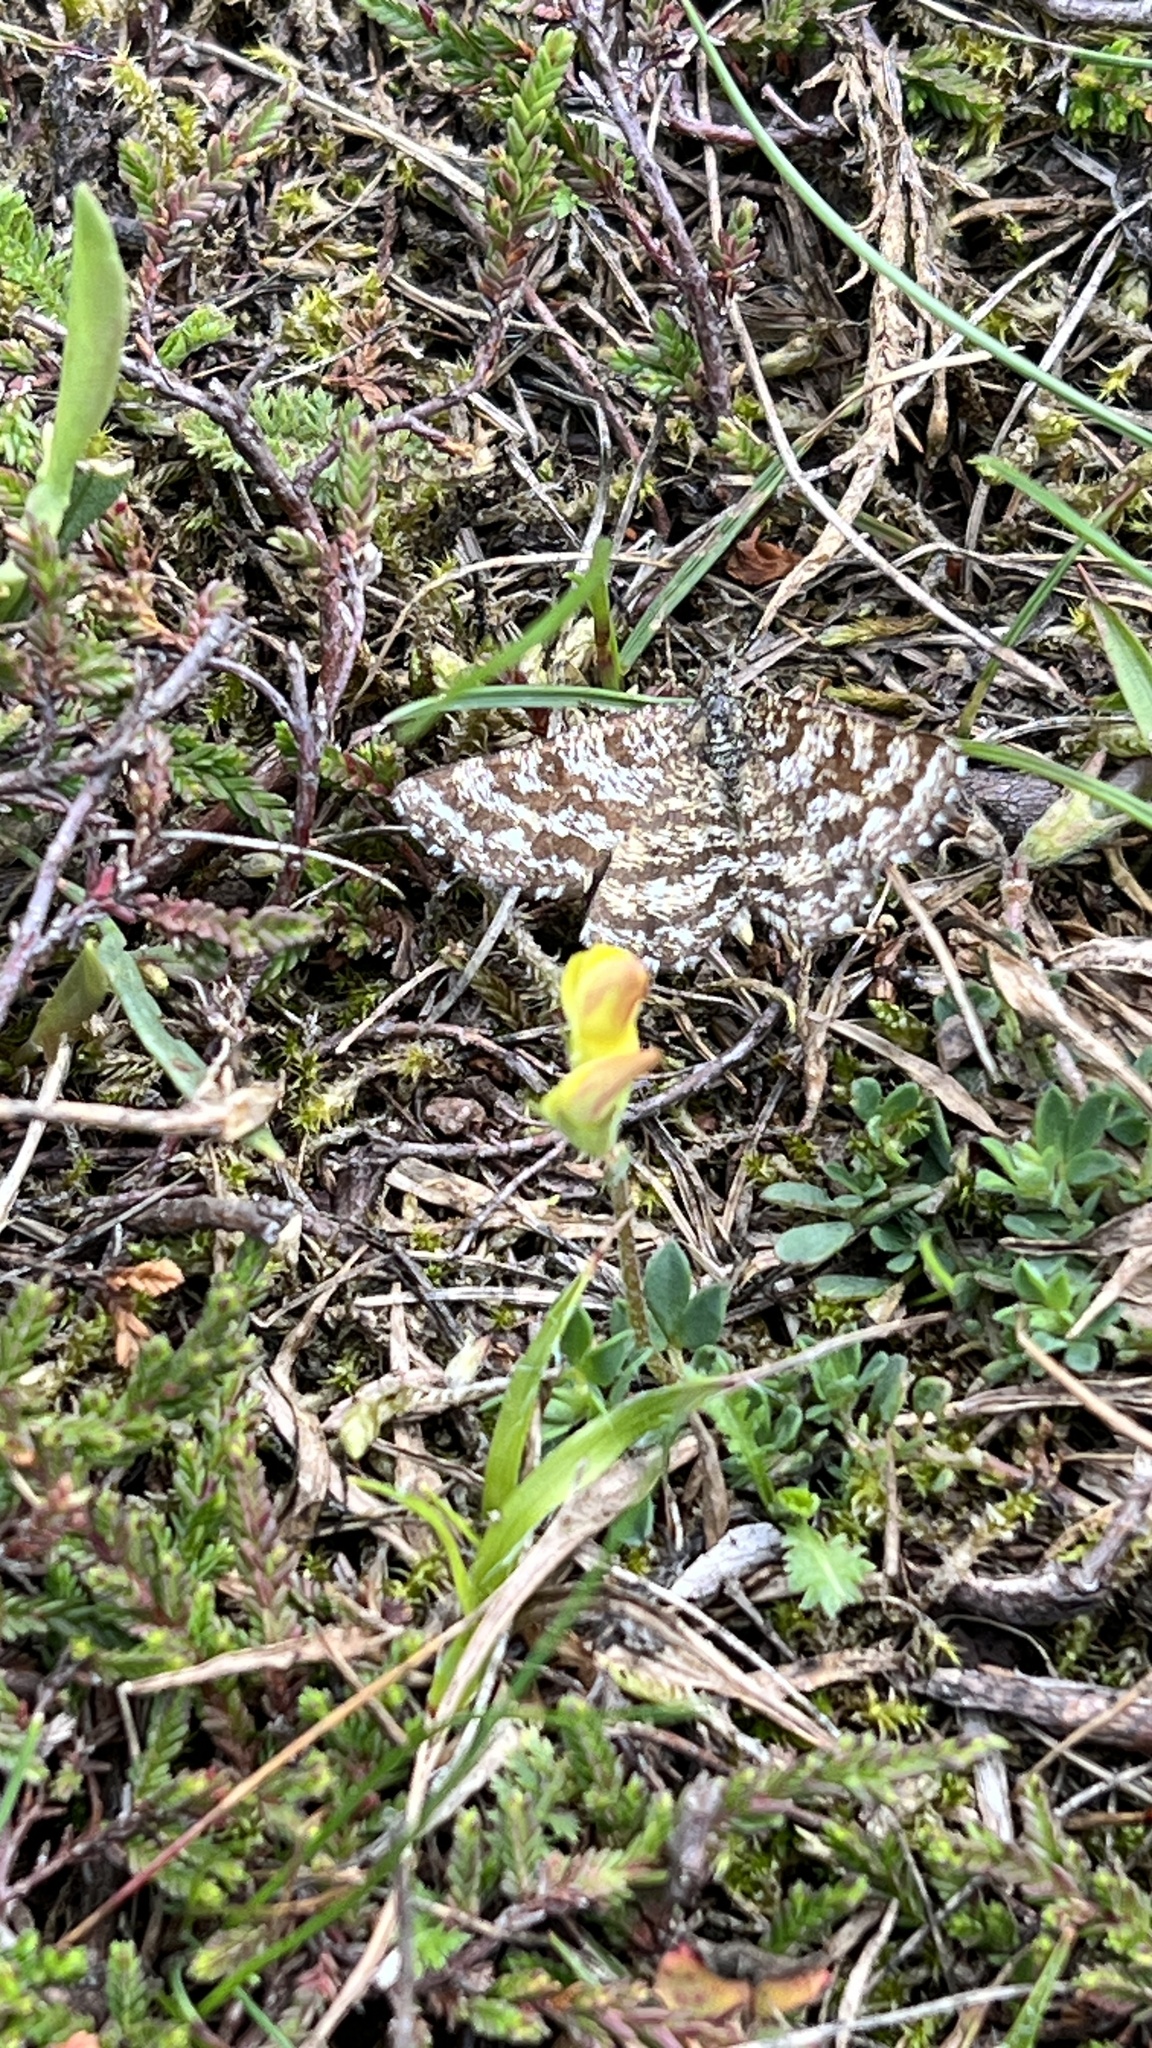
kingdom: Animalia
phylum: Arthropoda
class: Insecta
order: Lepidoptera
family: Geometridae
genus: Ematurga
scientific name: Ematurga atomaria
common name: Common heath
